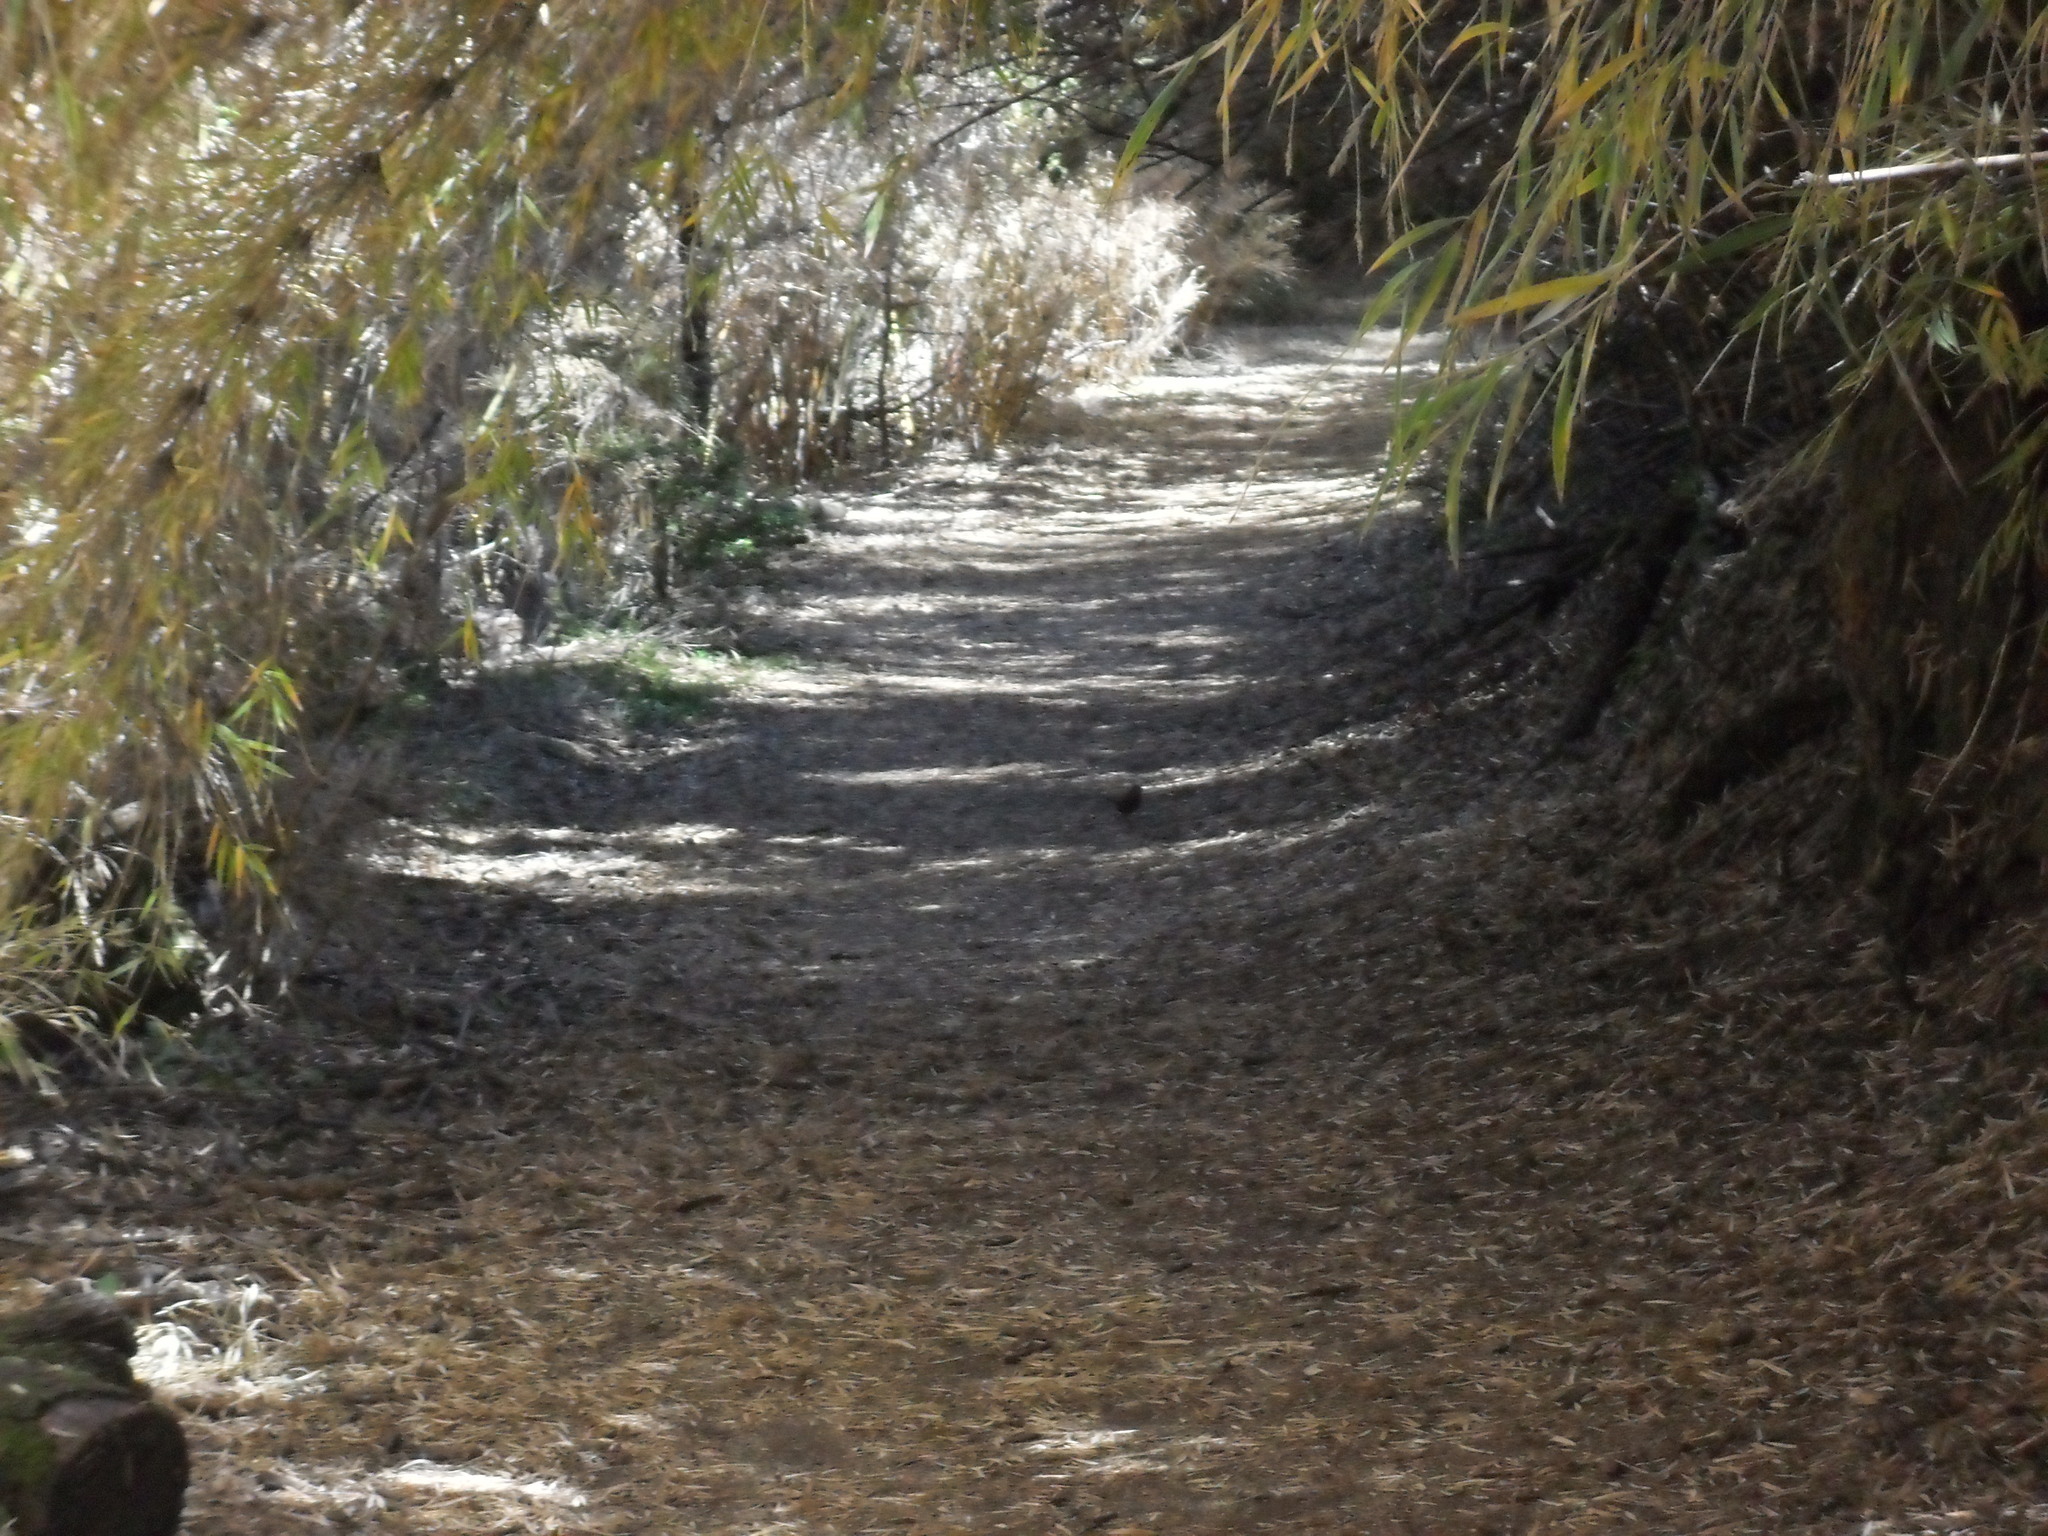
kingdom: Animalia
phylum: Chordata
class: Aves
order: Passeriformes
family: Rhinocryptidae
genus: Scelorchilus
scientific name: Scelorchilus rubecula
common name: Chucao tapaculo
